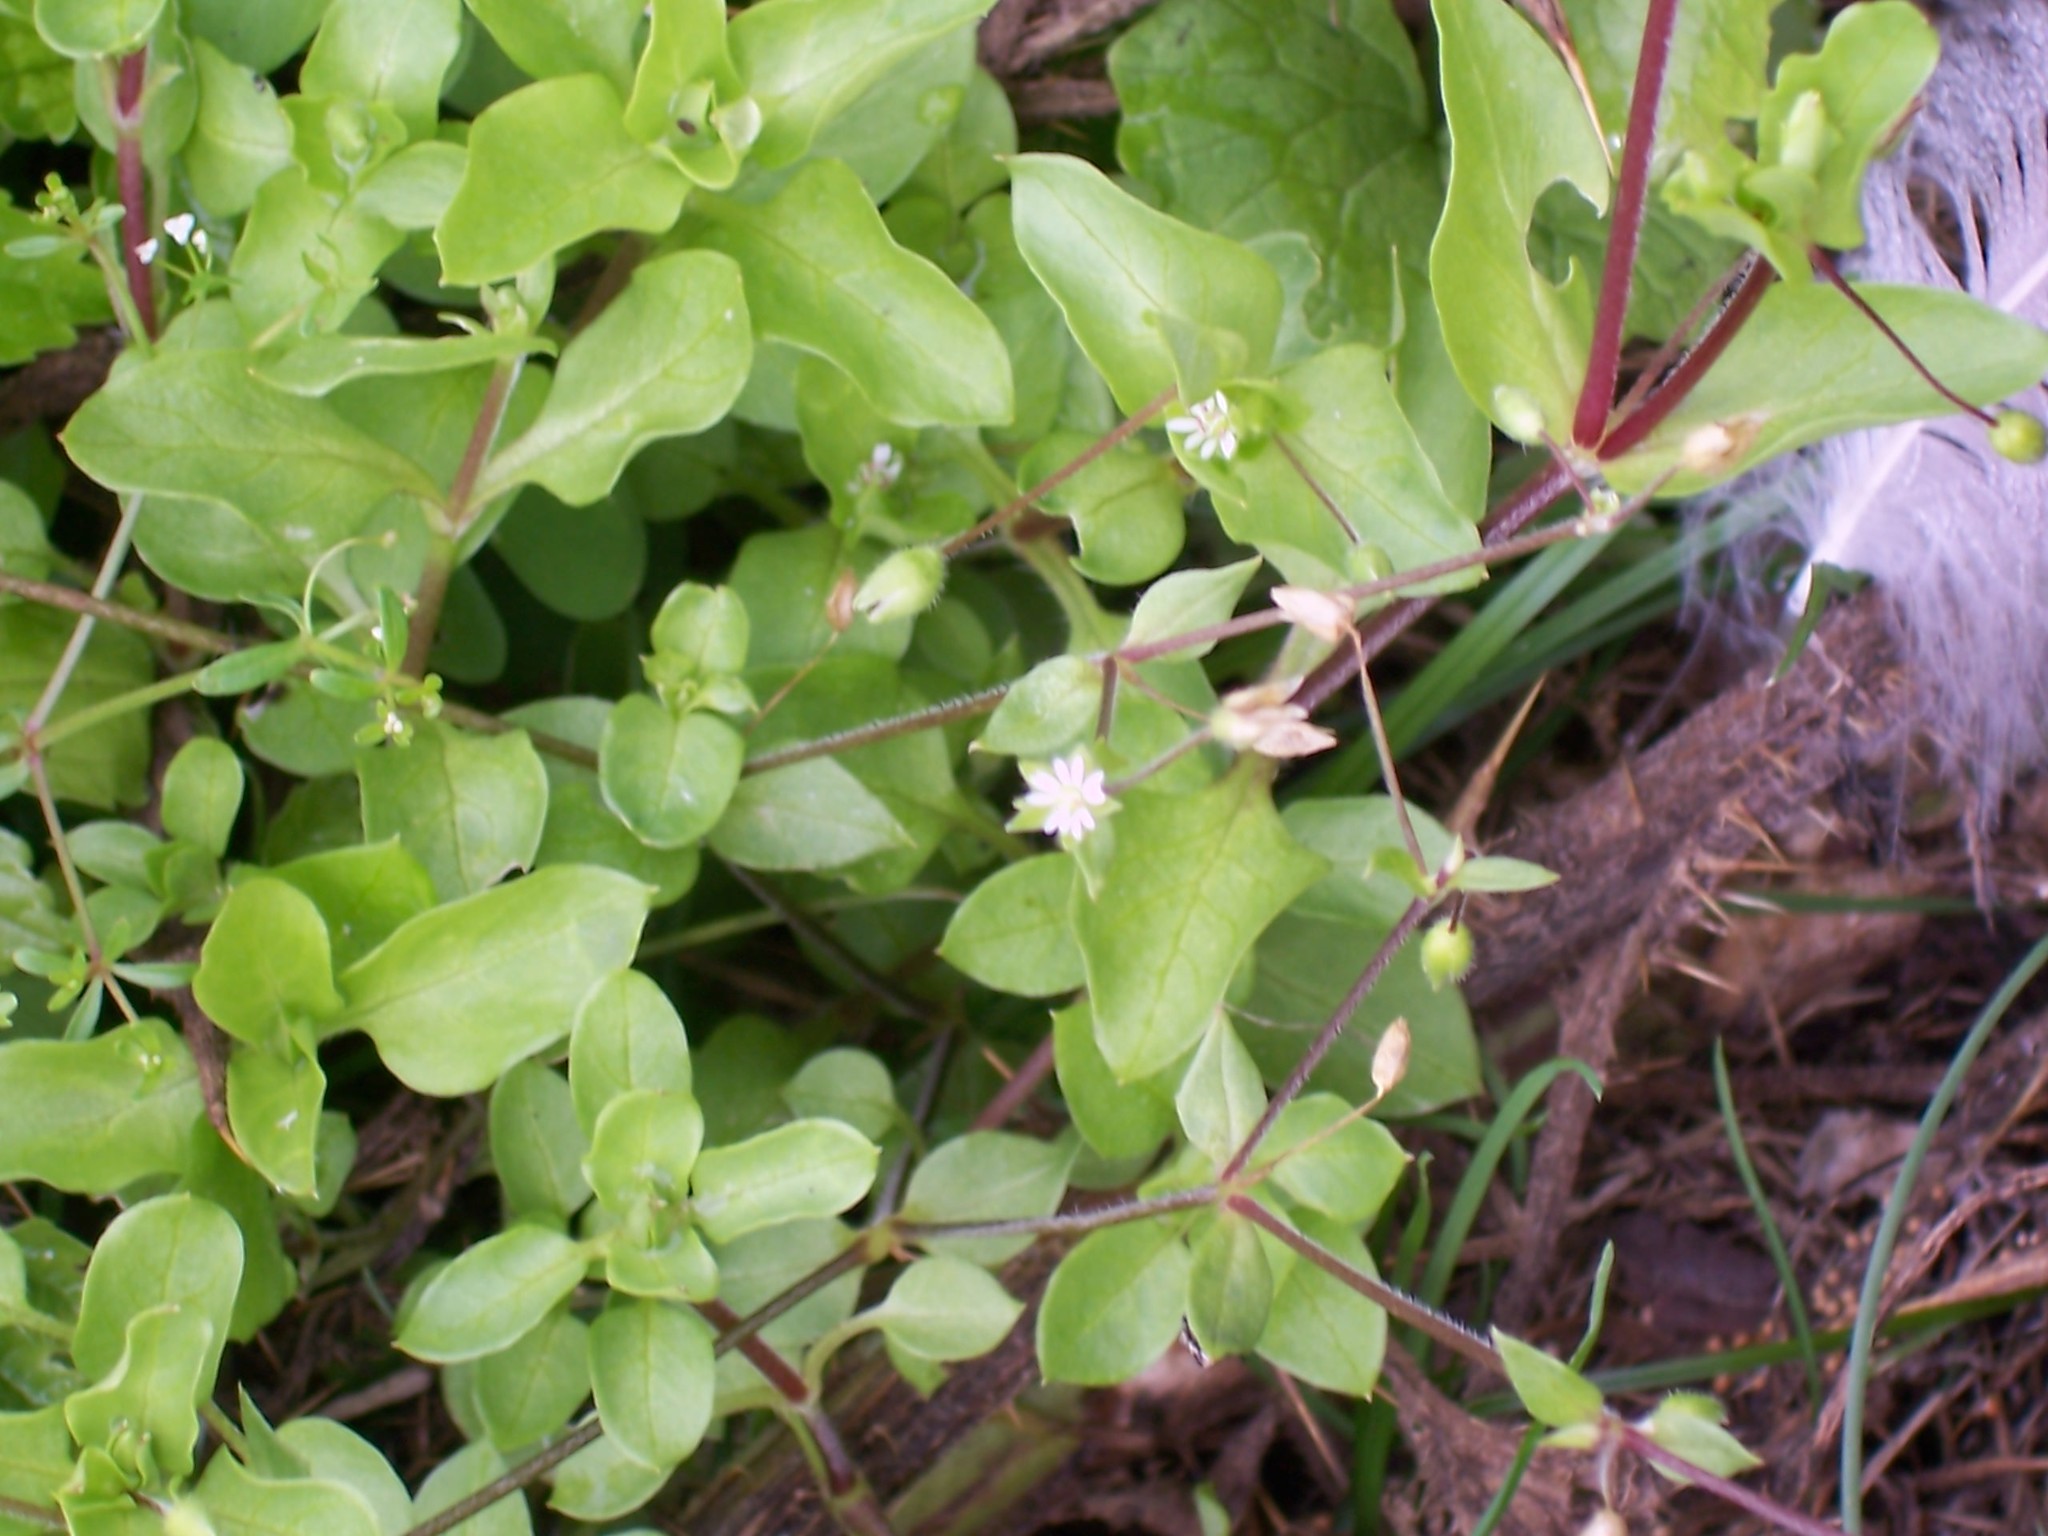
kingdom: Plantae
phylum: Tracheophyta
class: Magnoliopsida
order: Caryophyllales
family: Caryophyllaceae
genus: Stellaria
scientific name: Stellaria media
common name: Common chickweed
